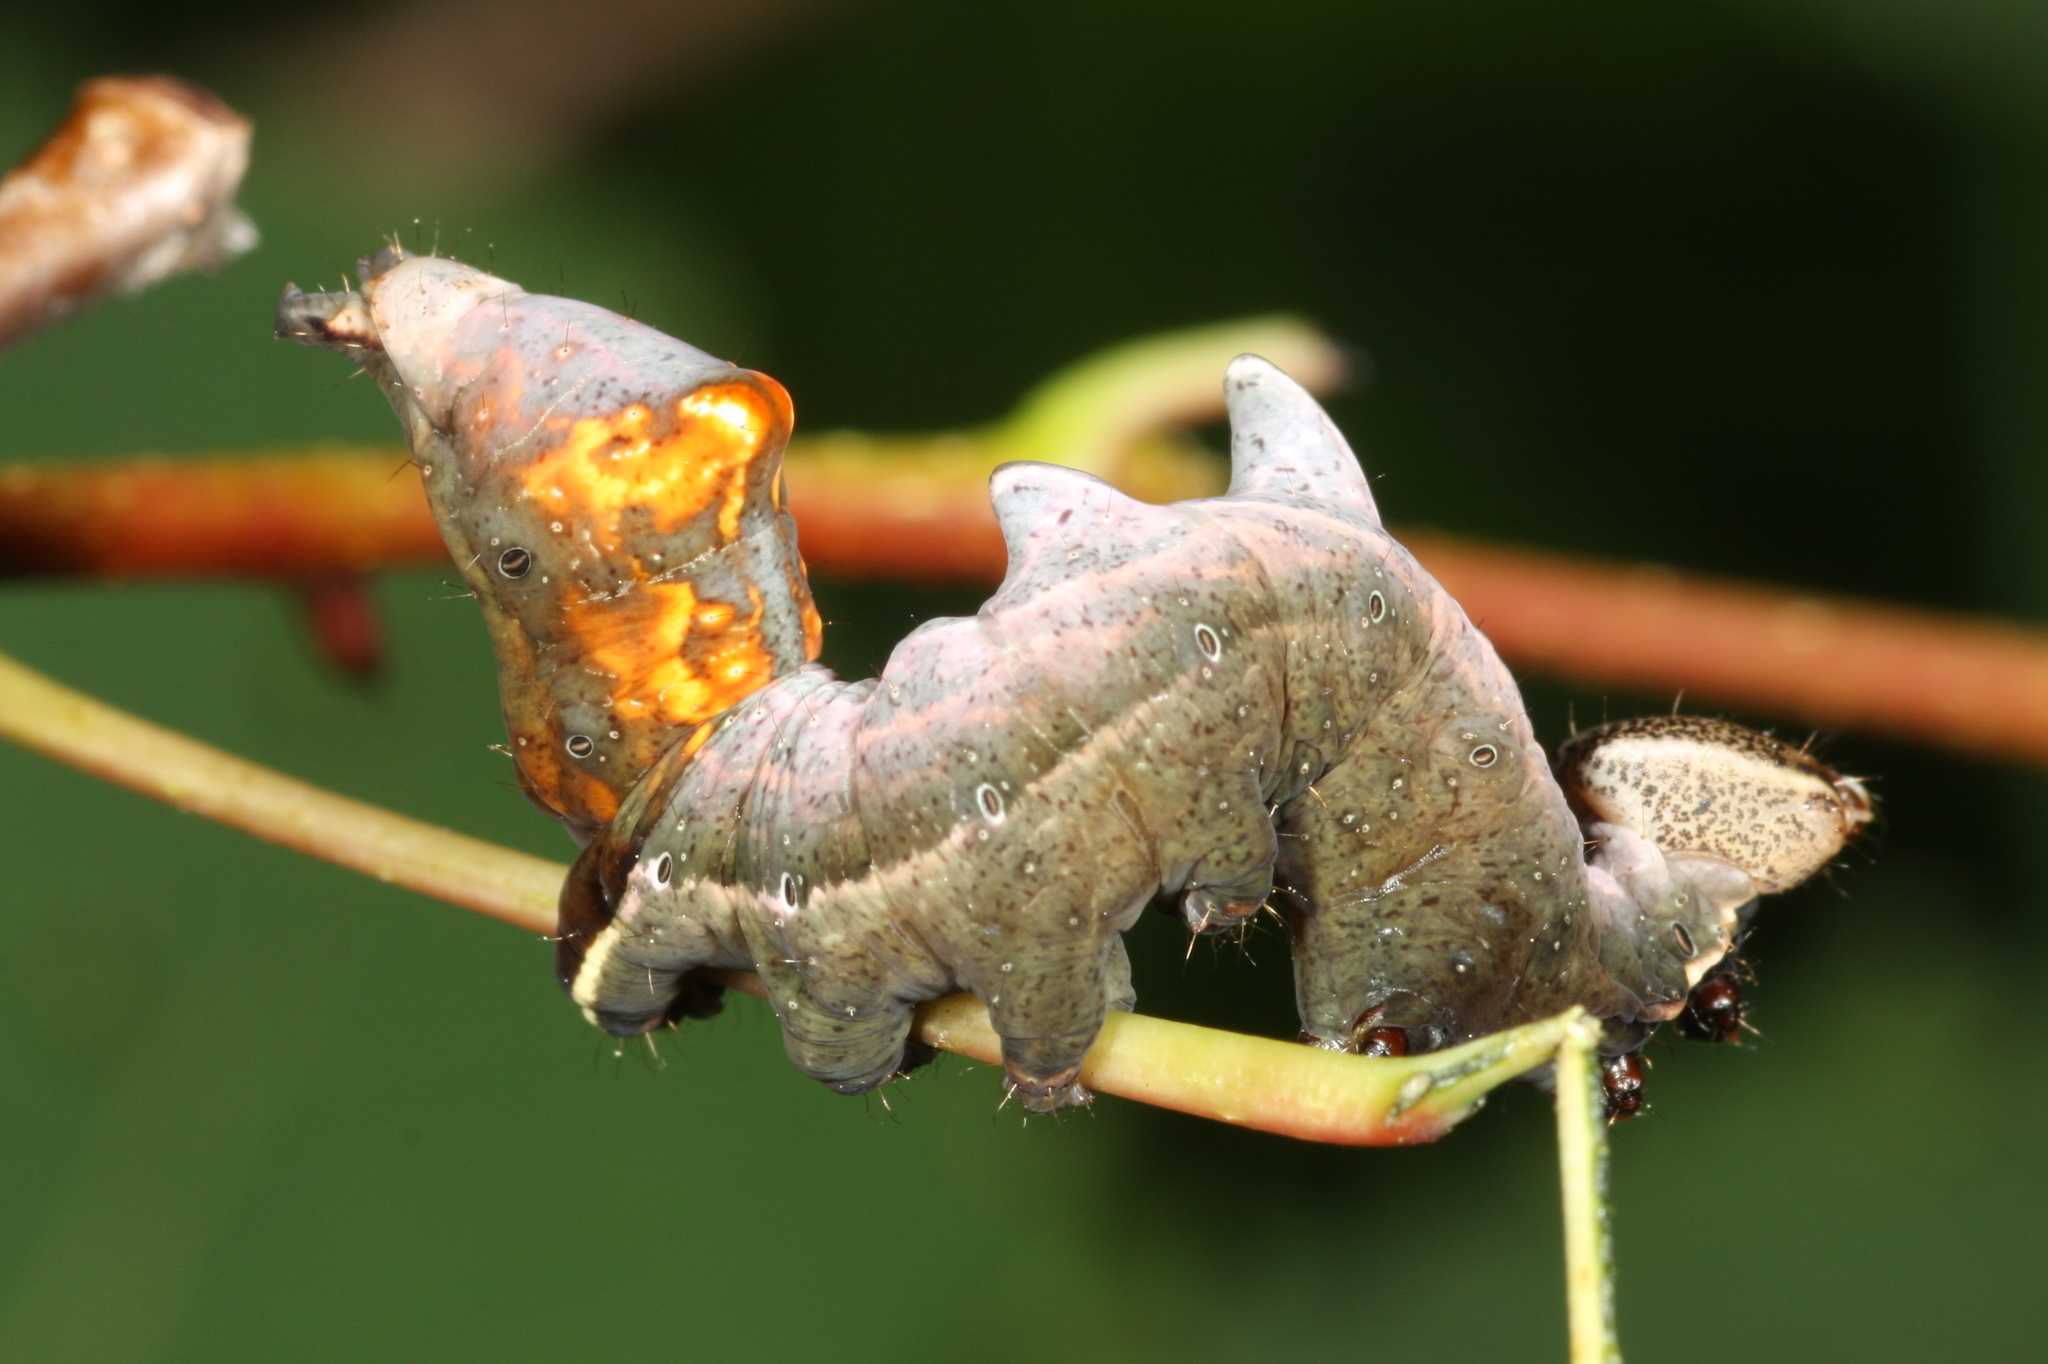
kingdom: Animalia
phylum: Arthropoda
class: Insecta
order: Lepidoptera
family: Notodontidae
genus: Notodonta
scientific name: Notodonta ziczac
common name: Pebble prominent
